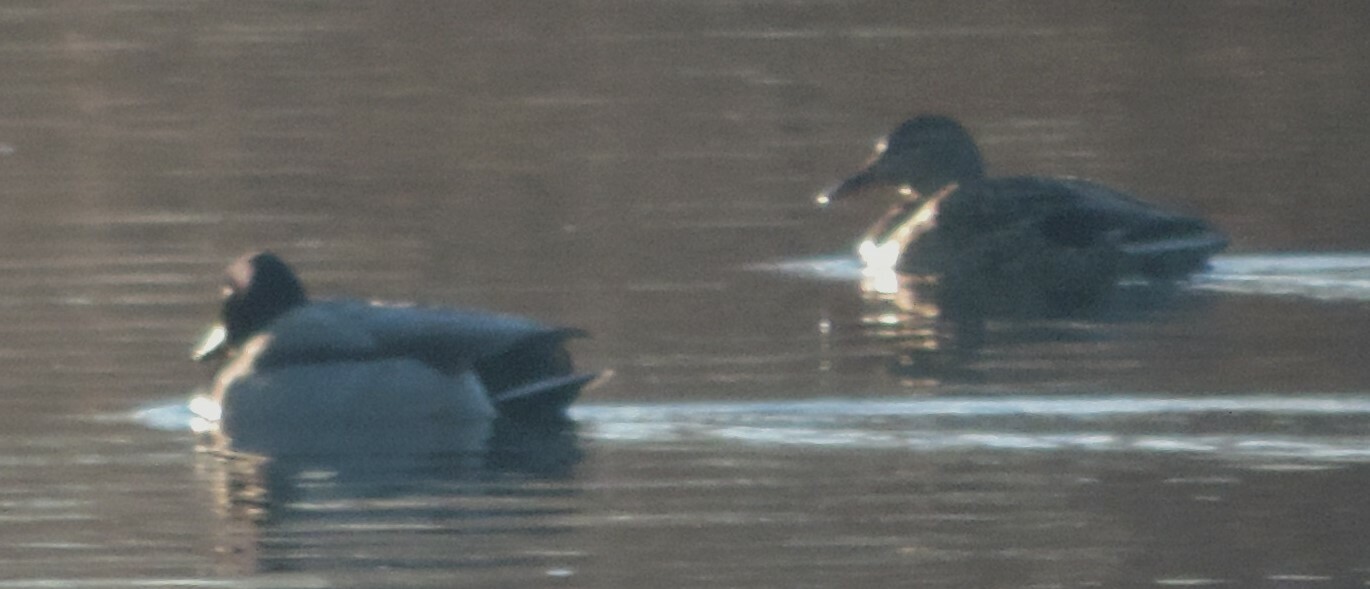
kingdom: Animalia
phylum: Chordata
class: Aves
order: Anseriformes
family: Anatidae
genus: Anas
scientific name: Anas platyrhynchos
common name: Mallard
